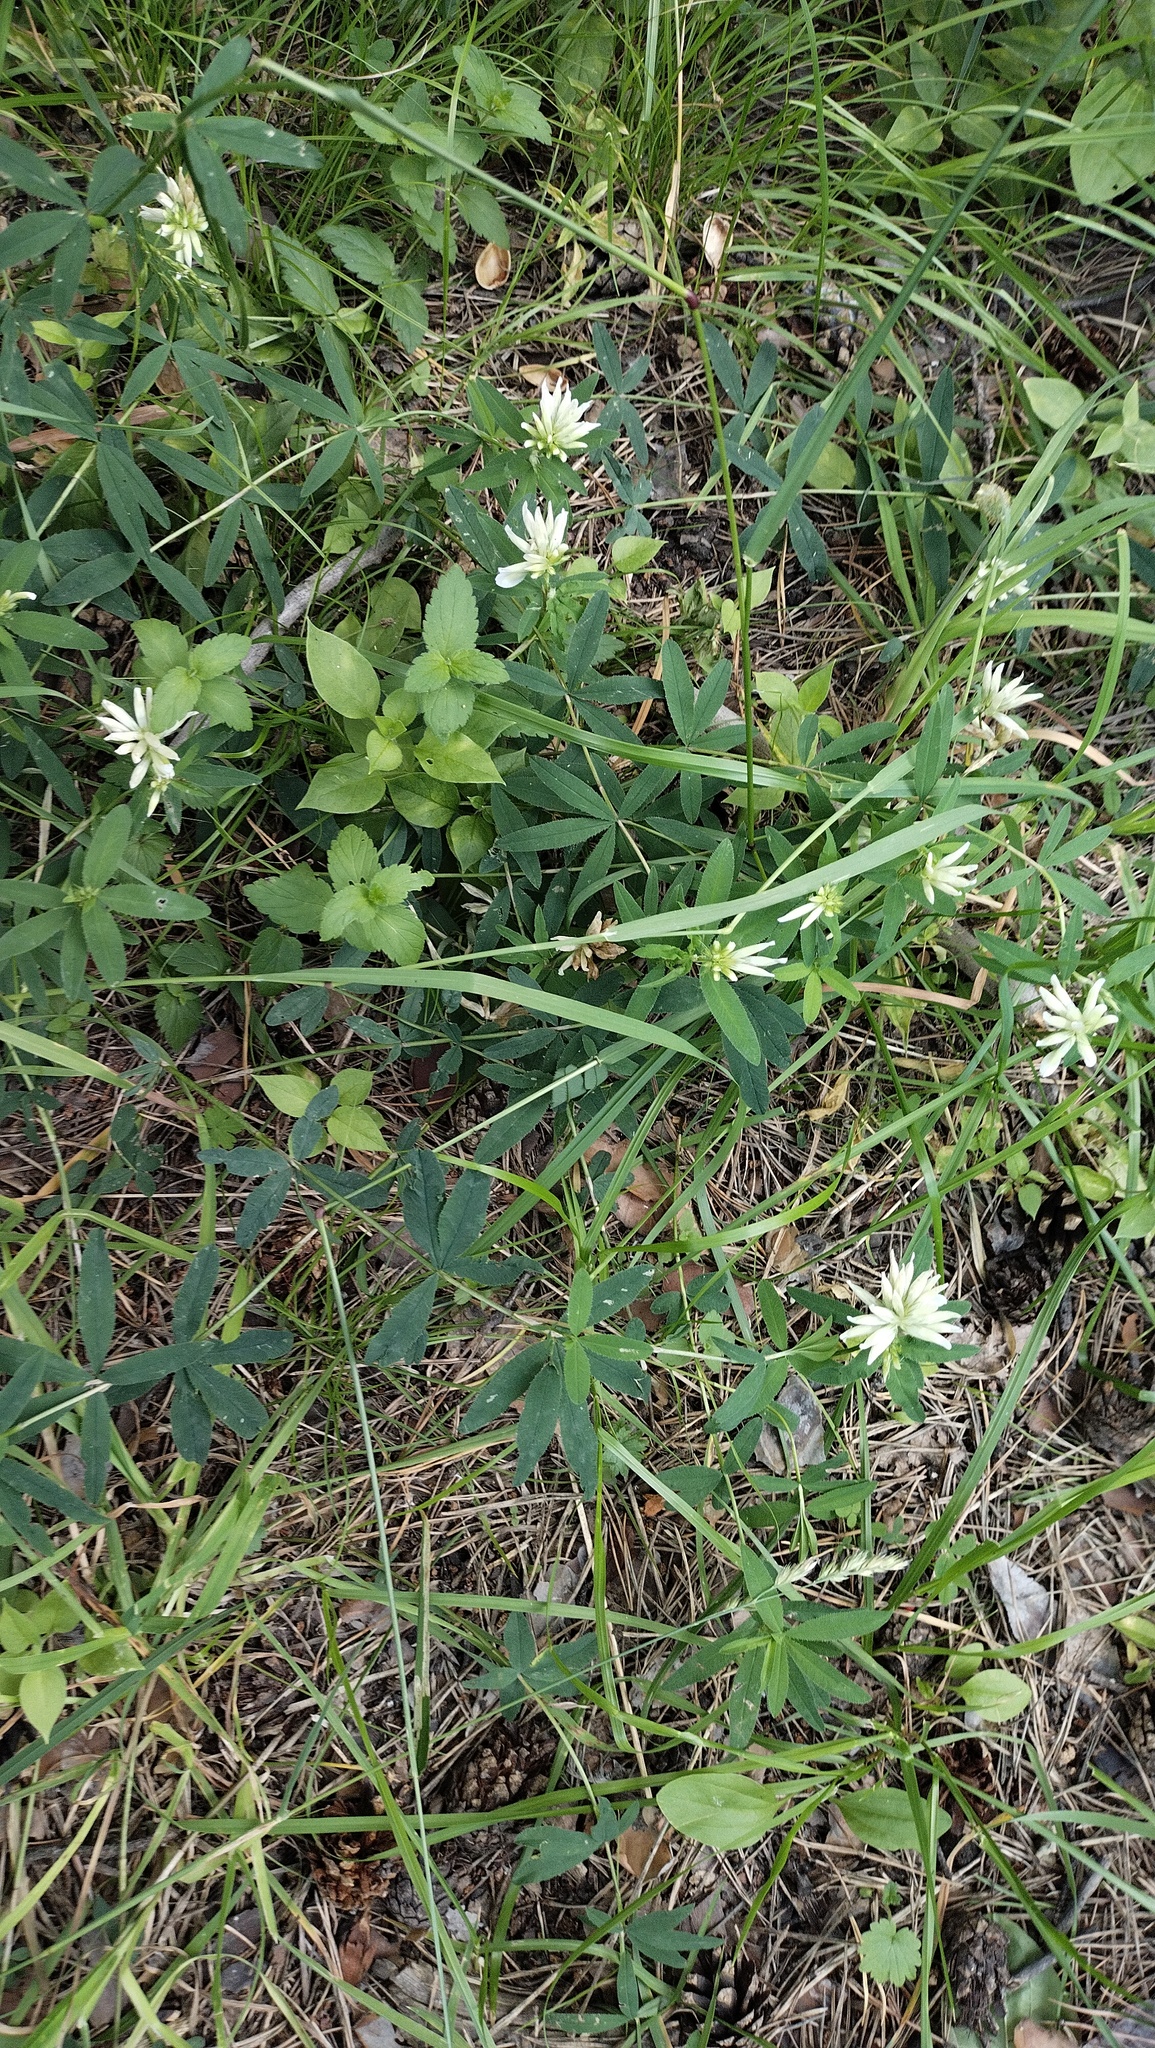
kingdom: Plantae
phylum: Tracheophyta
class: Magnoliopsida
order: Fabales
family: Fabaceae
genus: Trifolium
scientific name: Trifolium lupinaster
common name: Lupine clover
